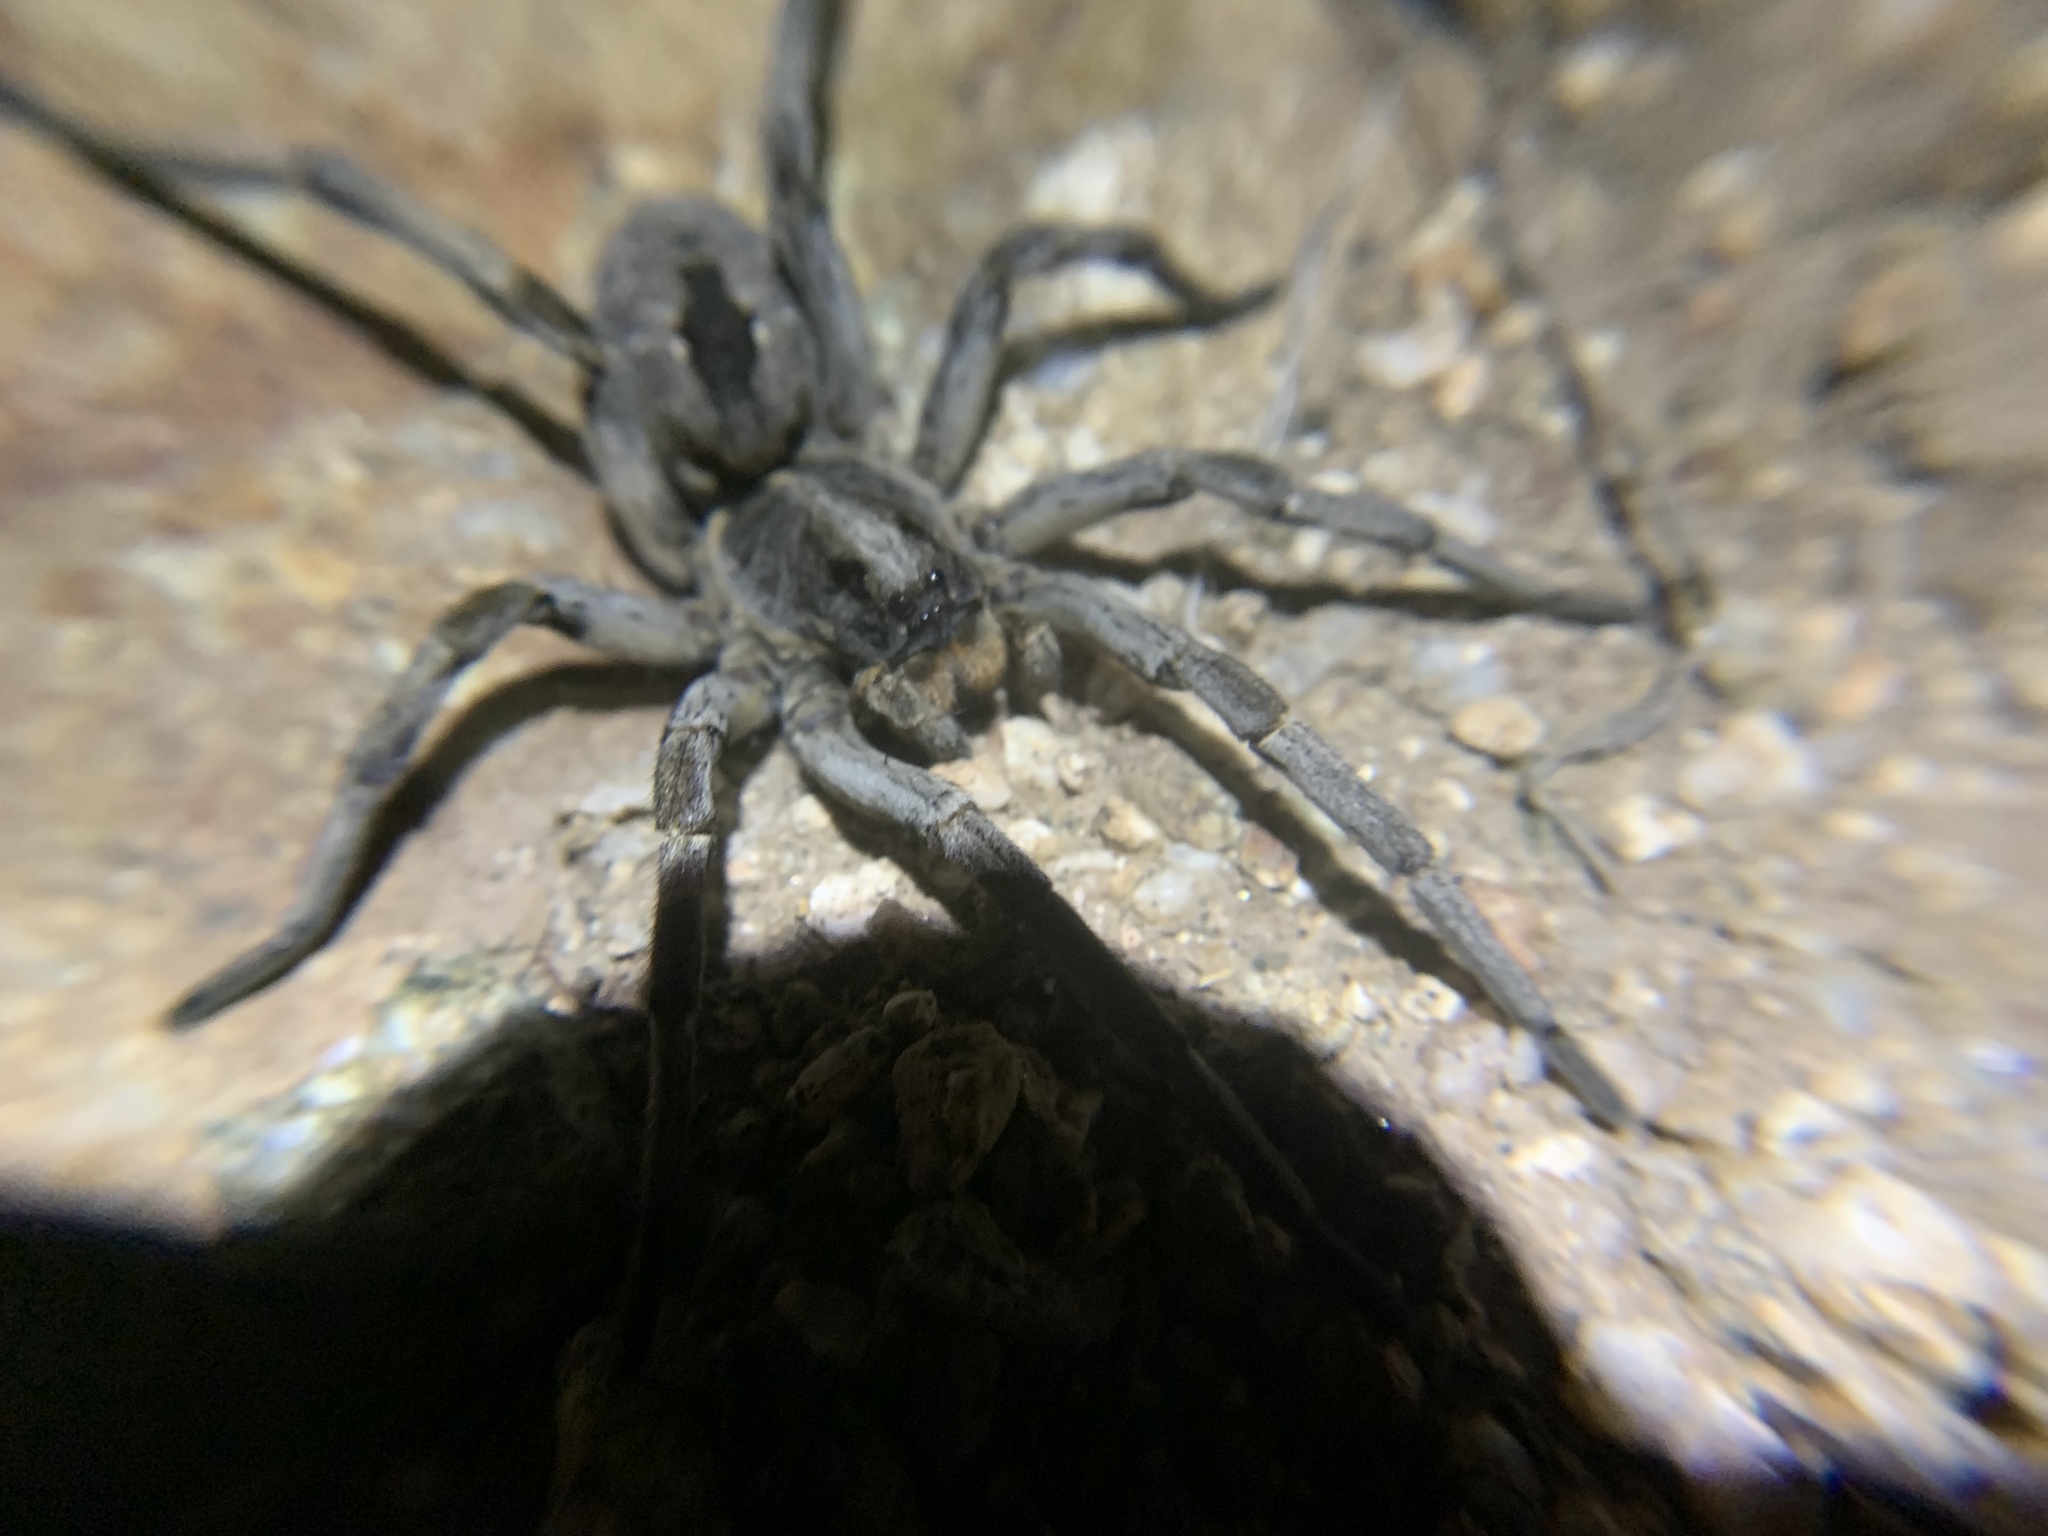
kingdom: Animalia
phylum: Arthropoda
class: Arachnida
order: Araneae
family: Lycosidae
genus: Hogna
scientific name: Hogna carolinensis
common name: Carolina wolf spider
